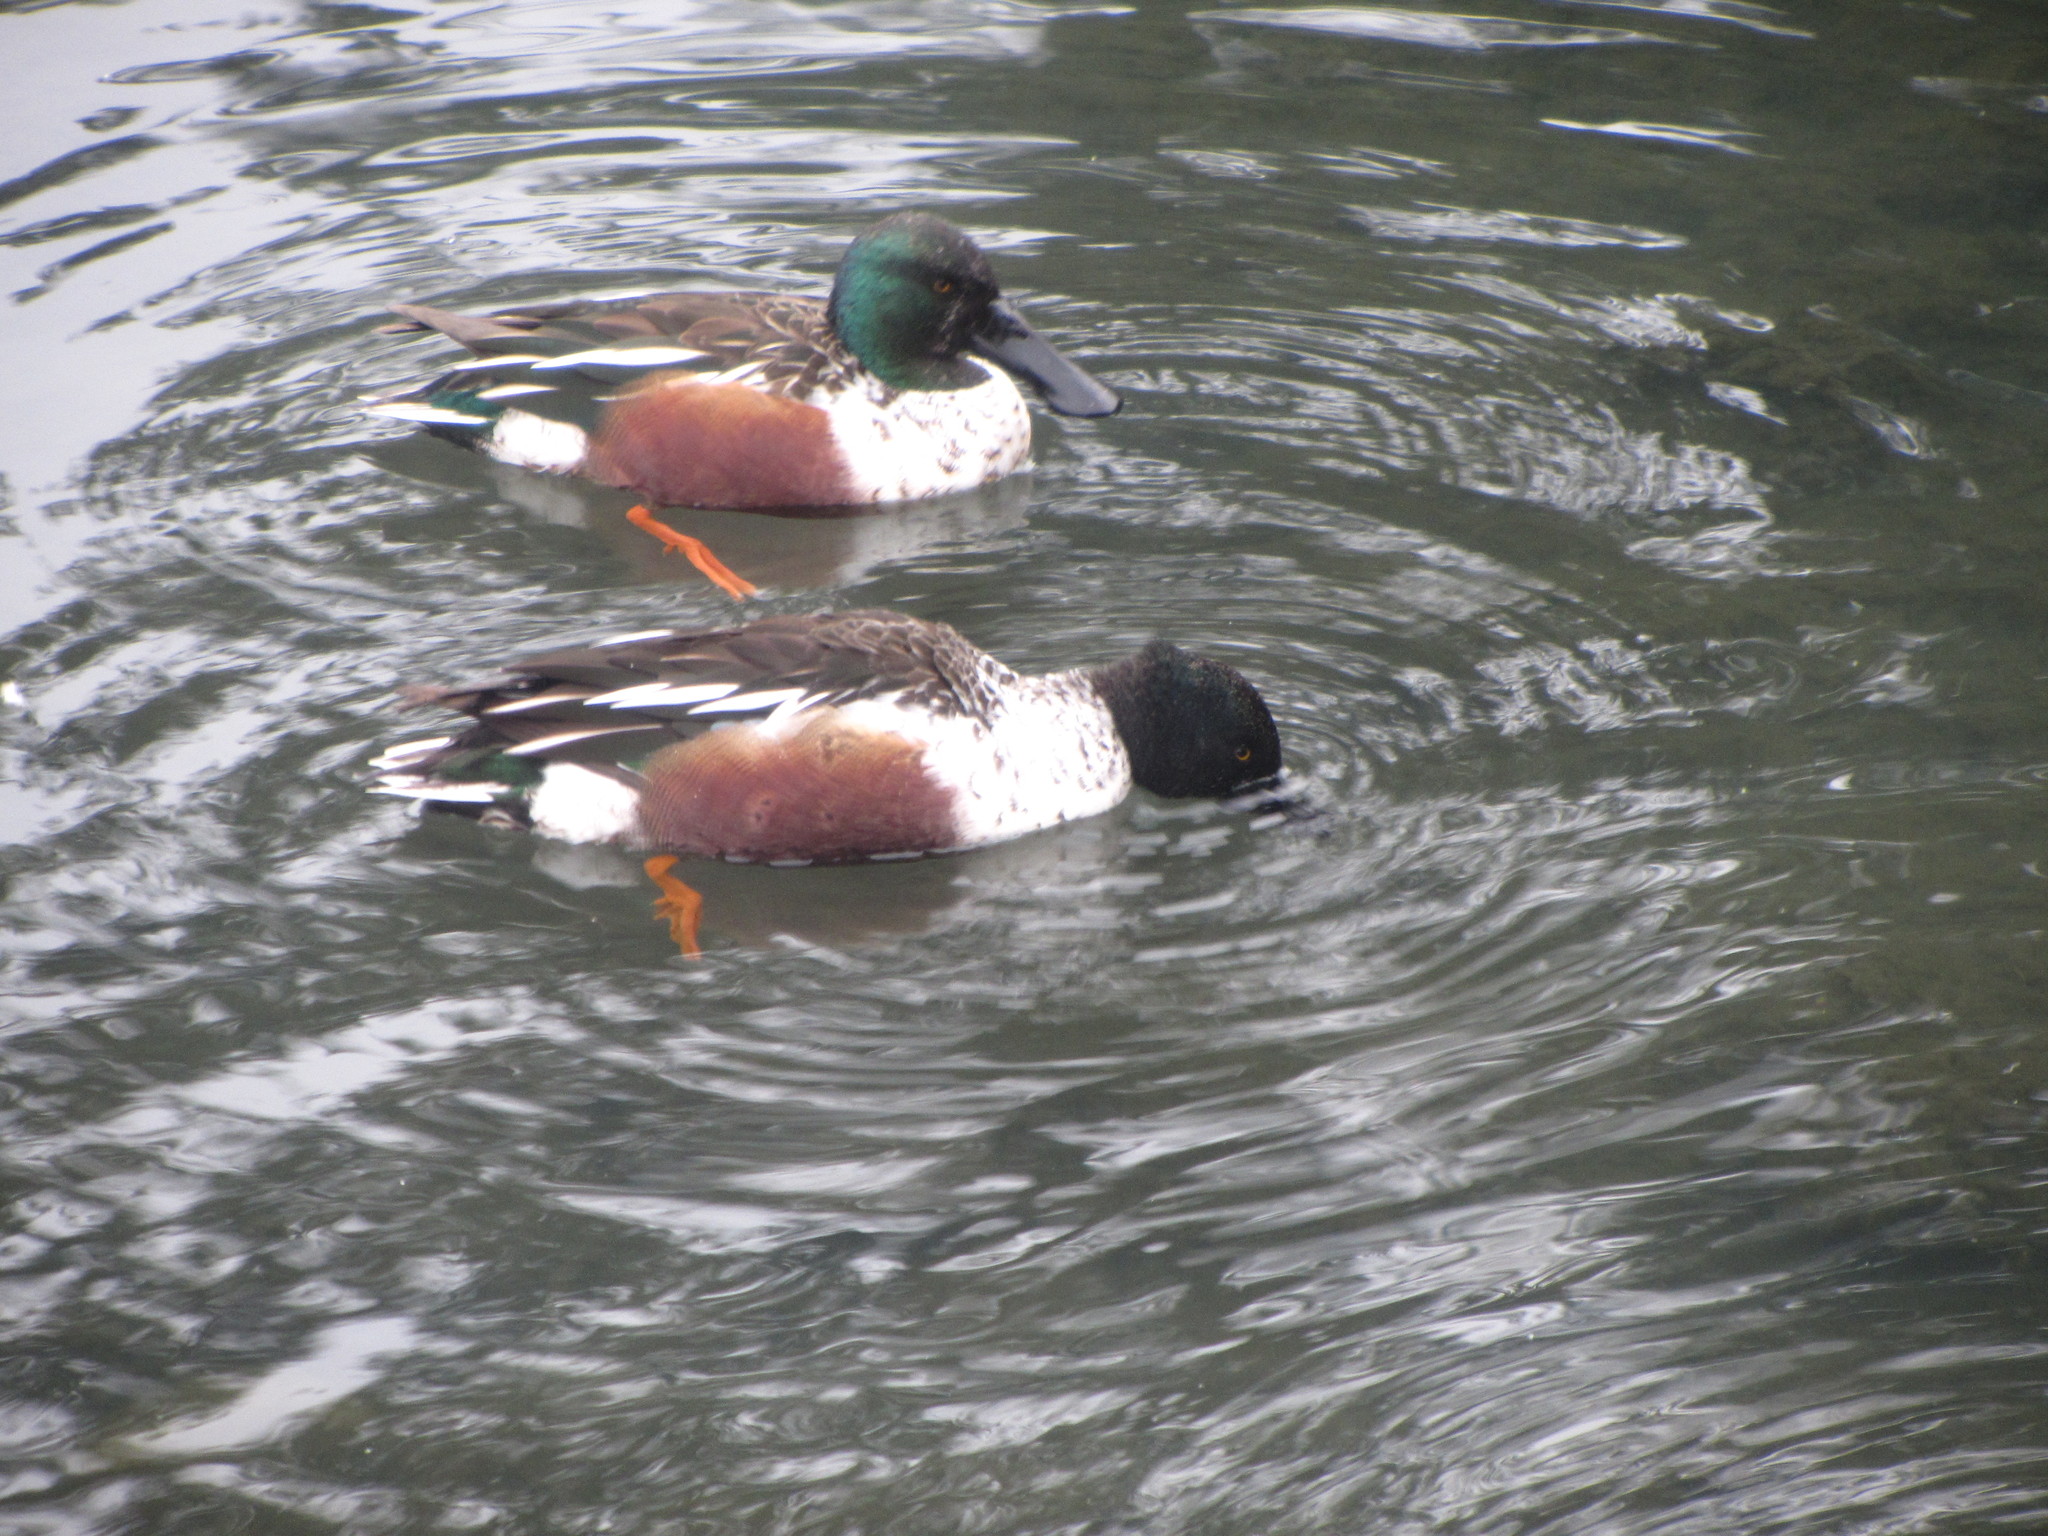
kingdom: Animalia
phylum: Chordata
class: Aves
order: Anseriformes
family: Anatidae
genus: Spatula
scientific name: Spatula clypeata
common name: Northern shoveler
